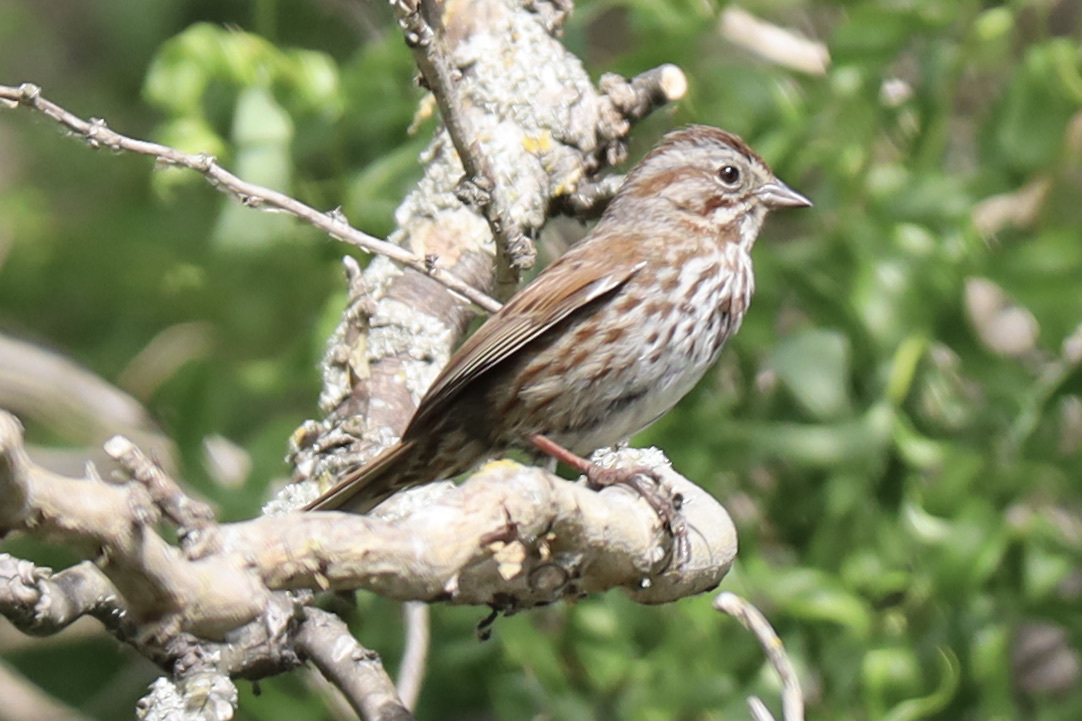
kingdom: Animalia
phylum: Chordata
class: Aves
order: Passeriformes
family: Passerellidae
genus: Melospiza
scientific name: Melospiza melodia
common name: Song sparrow
